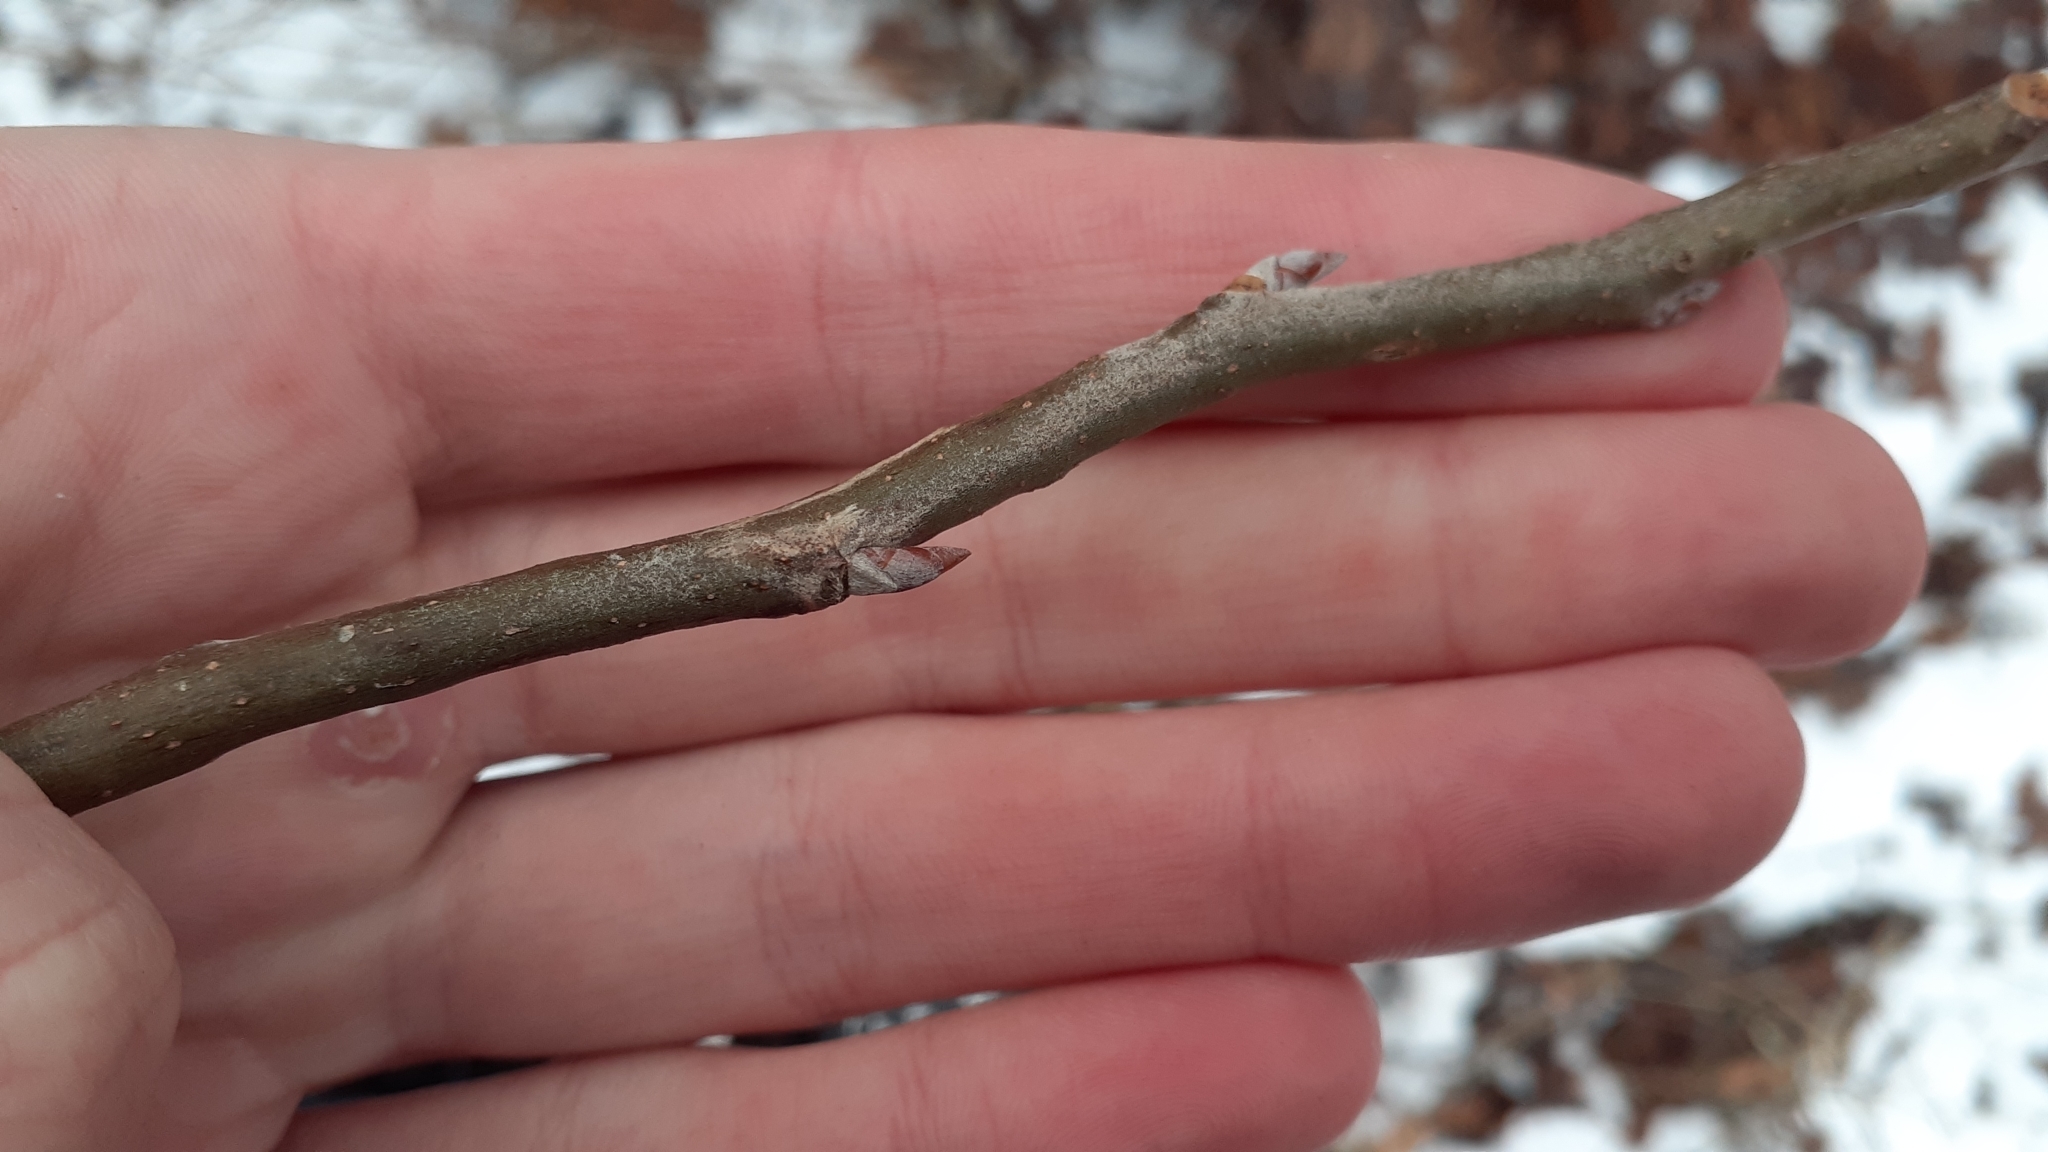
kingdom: Plantae
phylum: Tracheophyta
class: Magnoliopsida
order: Malpighiales
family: Salicaceae
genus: Populus
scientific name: Populus grandidentata
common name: Bigtooth aspen
